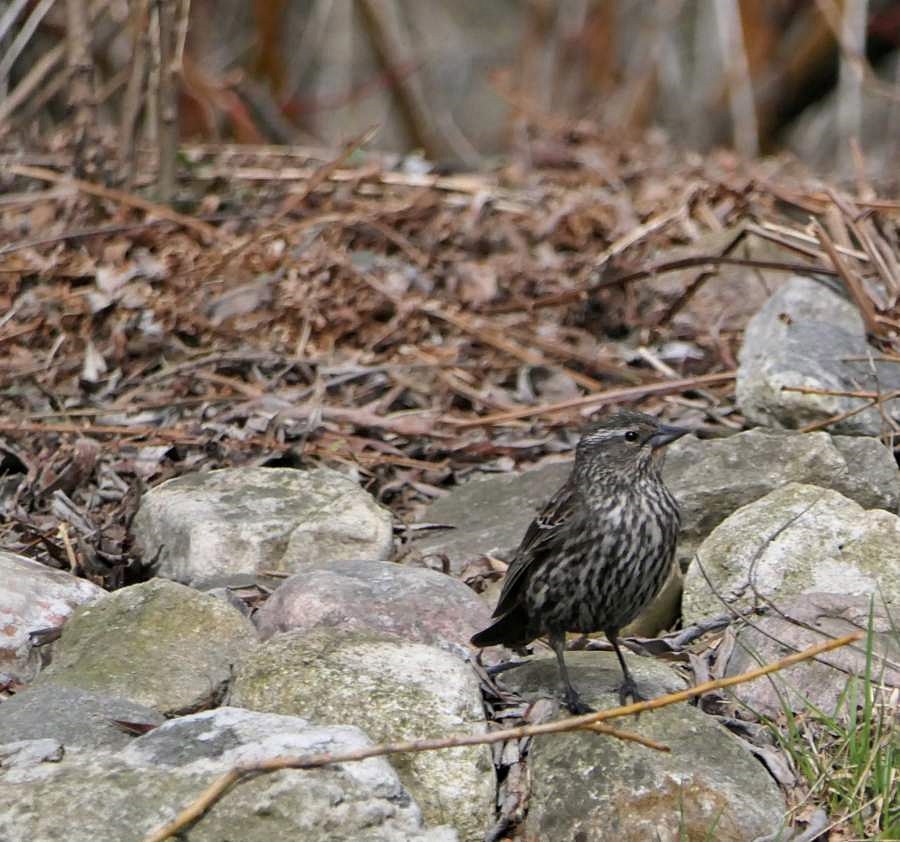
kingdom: Animalia
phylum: Chordata
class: Aves
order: Passeriformes
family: Icteridae
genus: Agelaius
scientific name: Agelaius phoeniceus
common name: Red-winged blackbird
